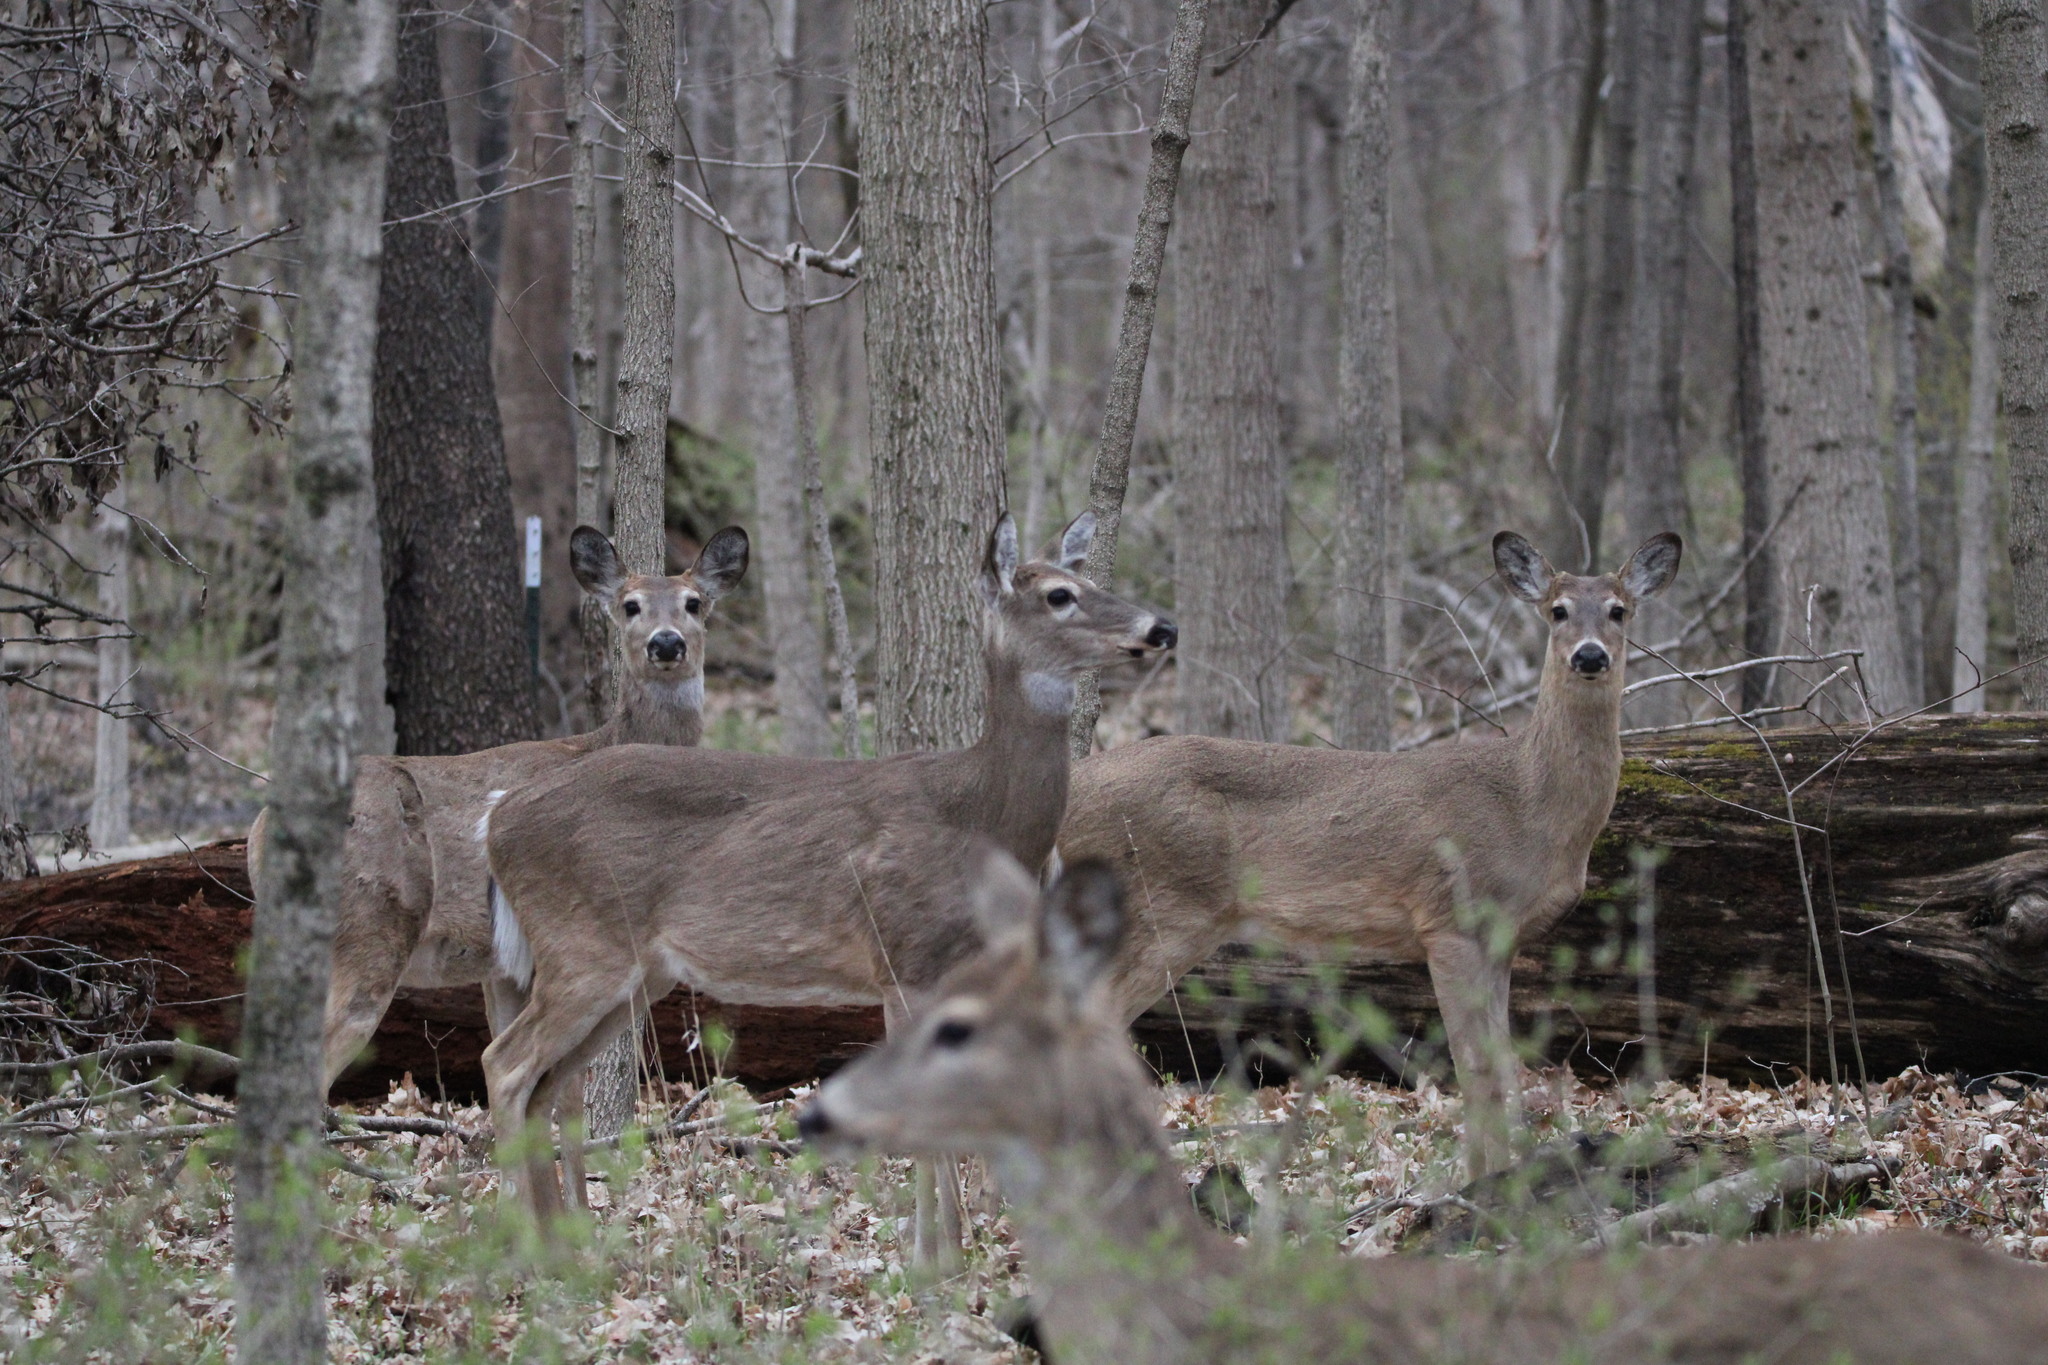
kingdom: Animalia
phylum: Chordata
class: Mammalia
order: Artiodactyla
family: Cervidae
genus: Odocoileus
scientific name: Odocoileus virginianus
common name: White-tailed deer
